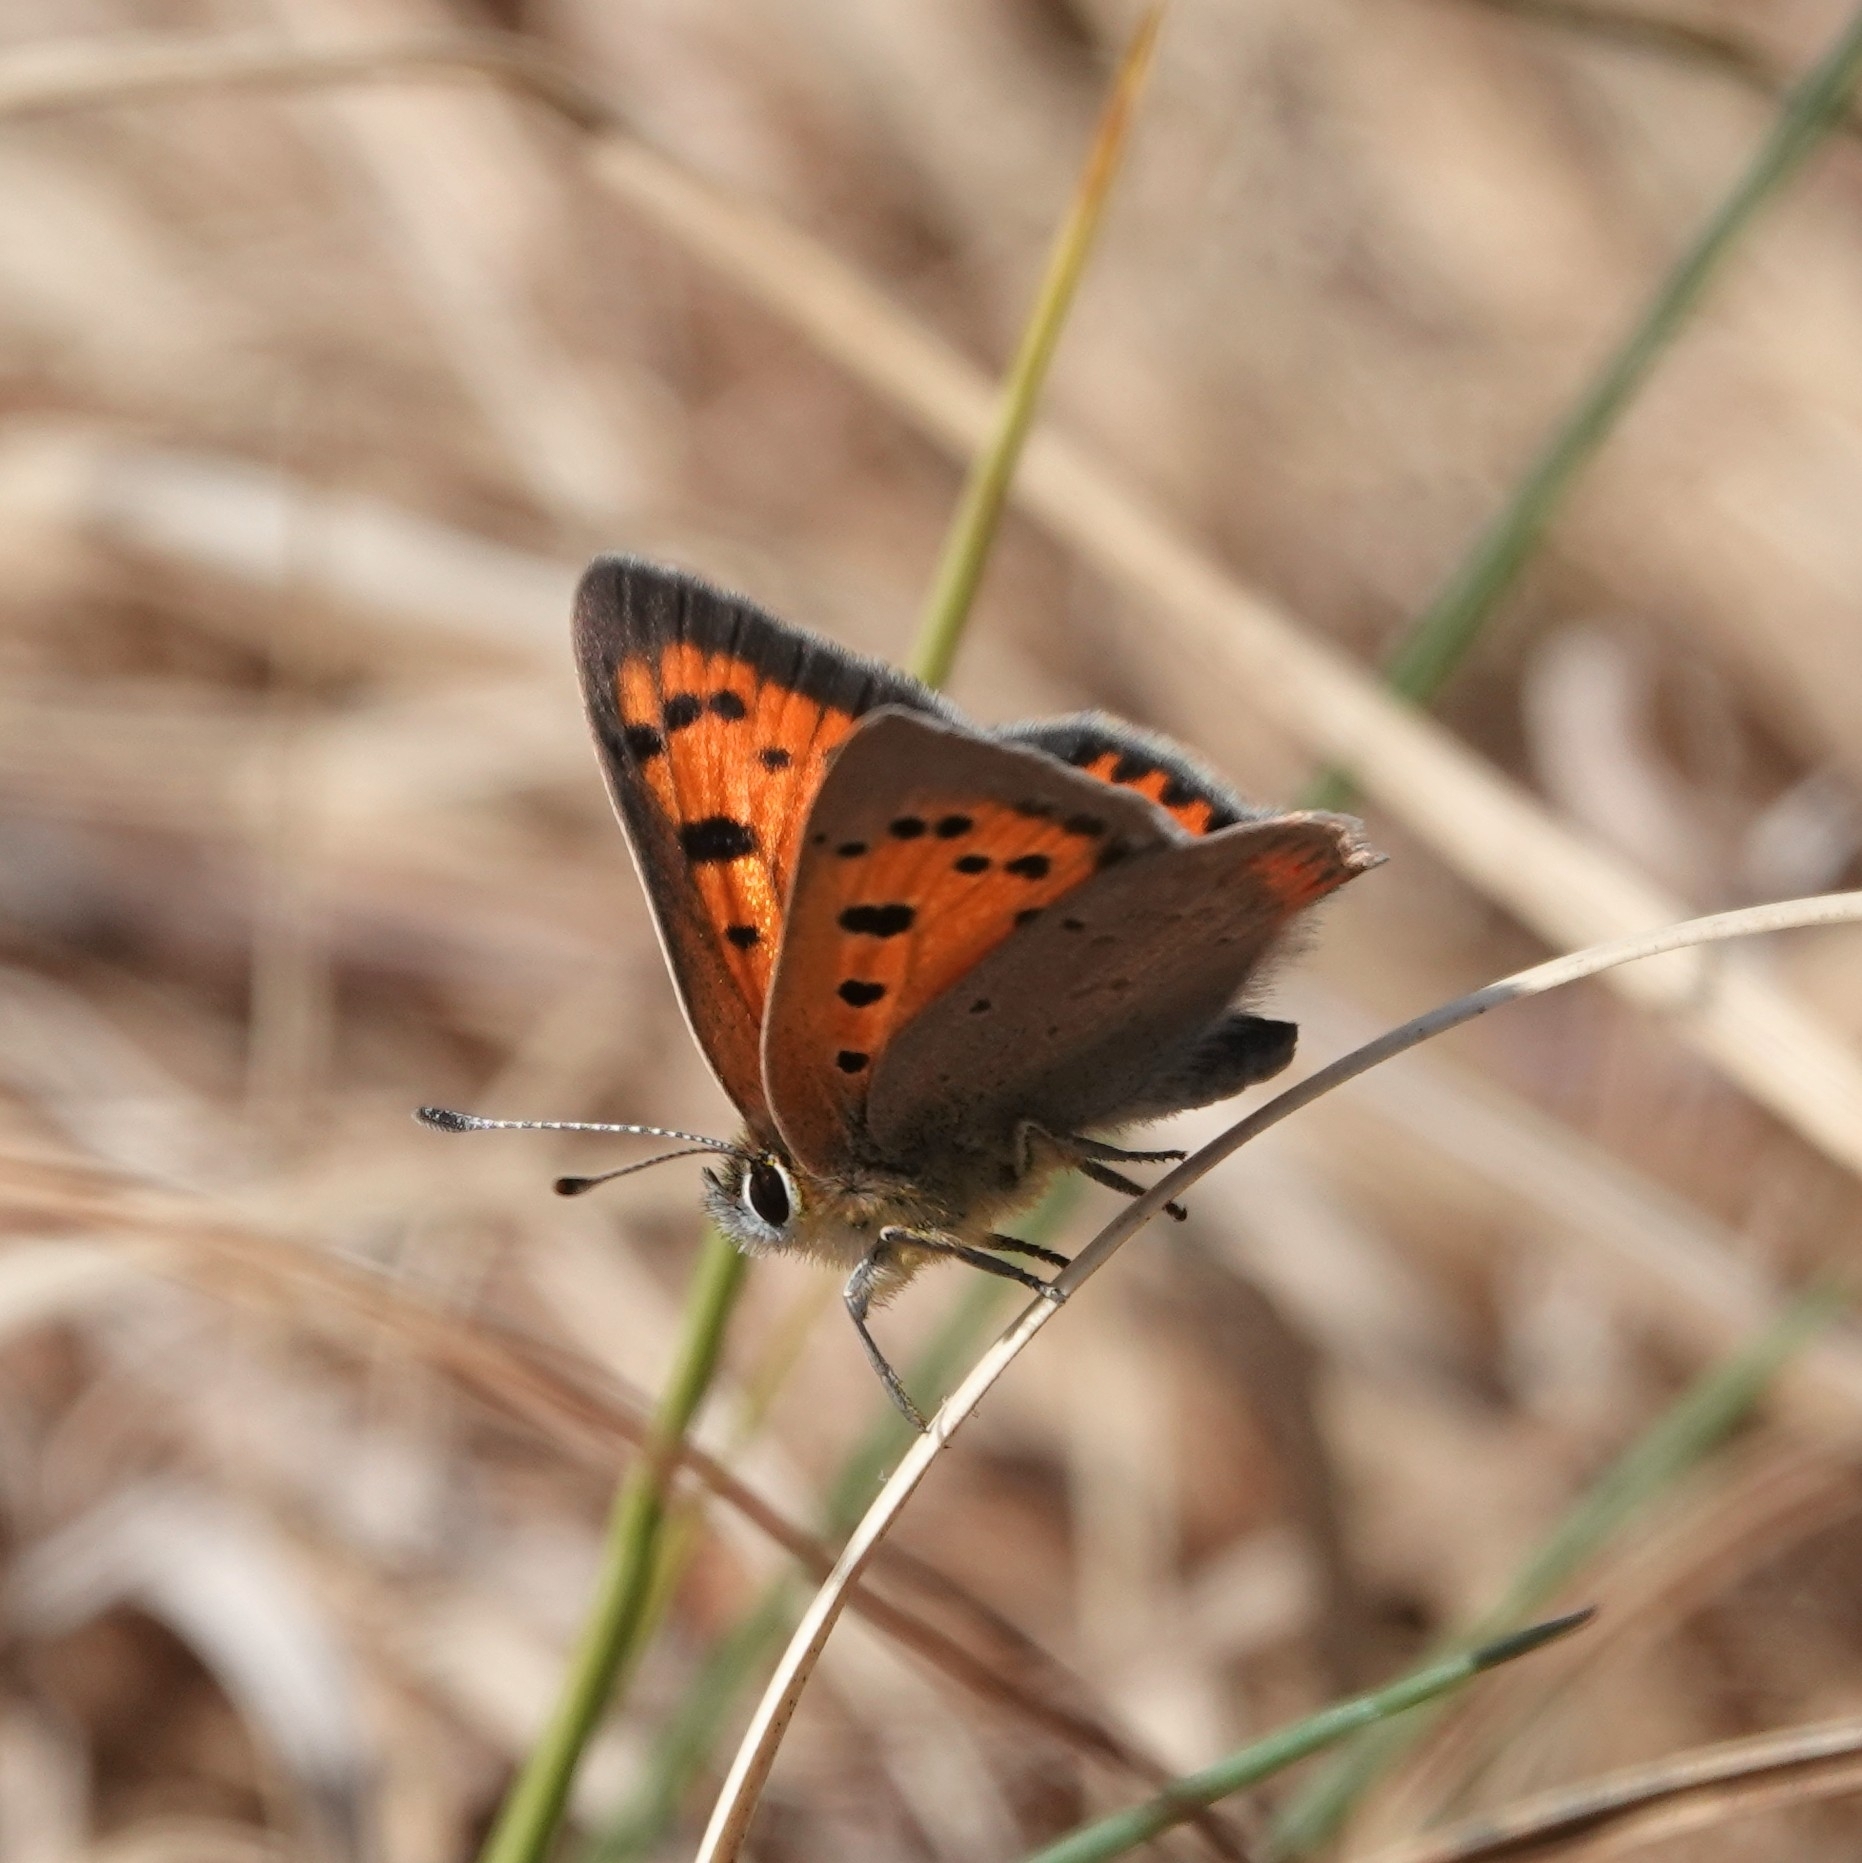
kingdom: Animalia
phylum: Arthropoda
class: Insecta
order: Lepidoptera
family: Lycaenidae
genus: Lycaena
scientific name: Lycaena phlaeas
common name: Small copper
